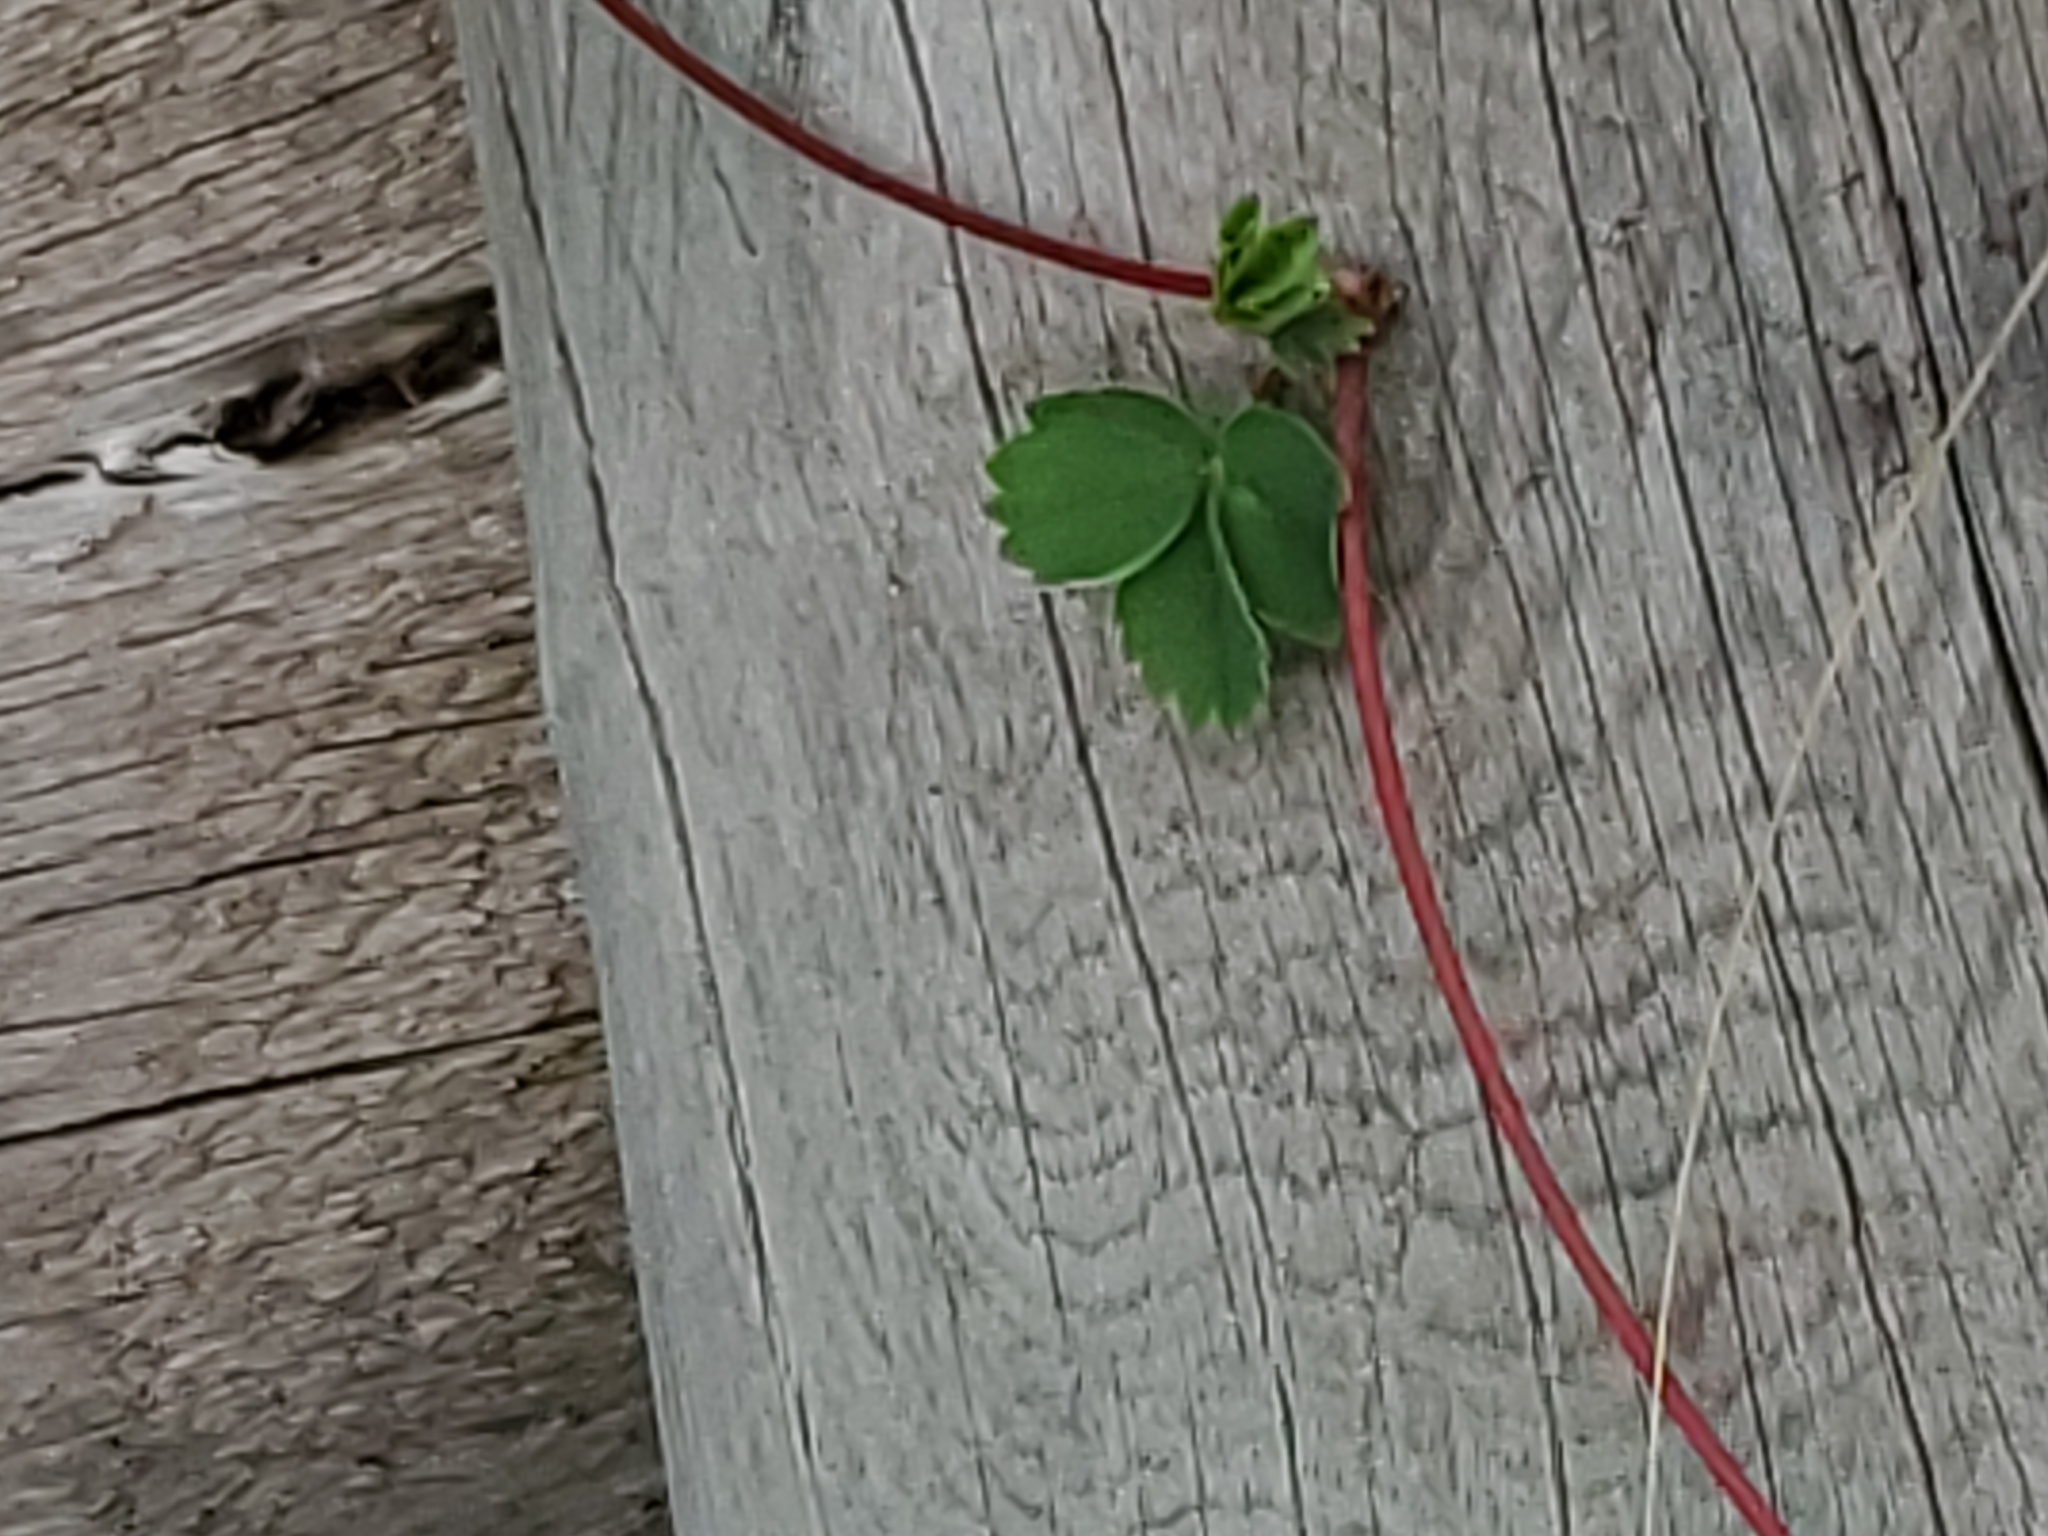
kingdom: Plantae
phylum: Tracheophyta
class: Magnoliopsida
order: Rosales
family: Rosaceae
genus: Fragaria
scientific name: Fragaria virginiana
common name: Thickleaved wild strawberry
